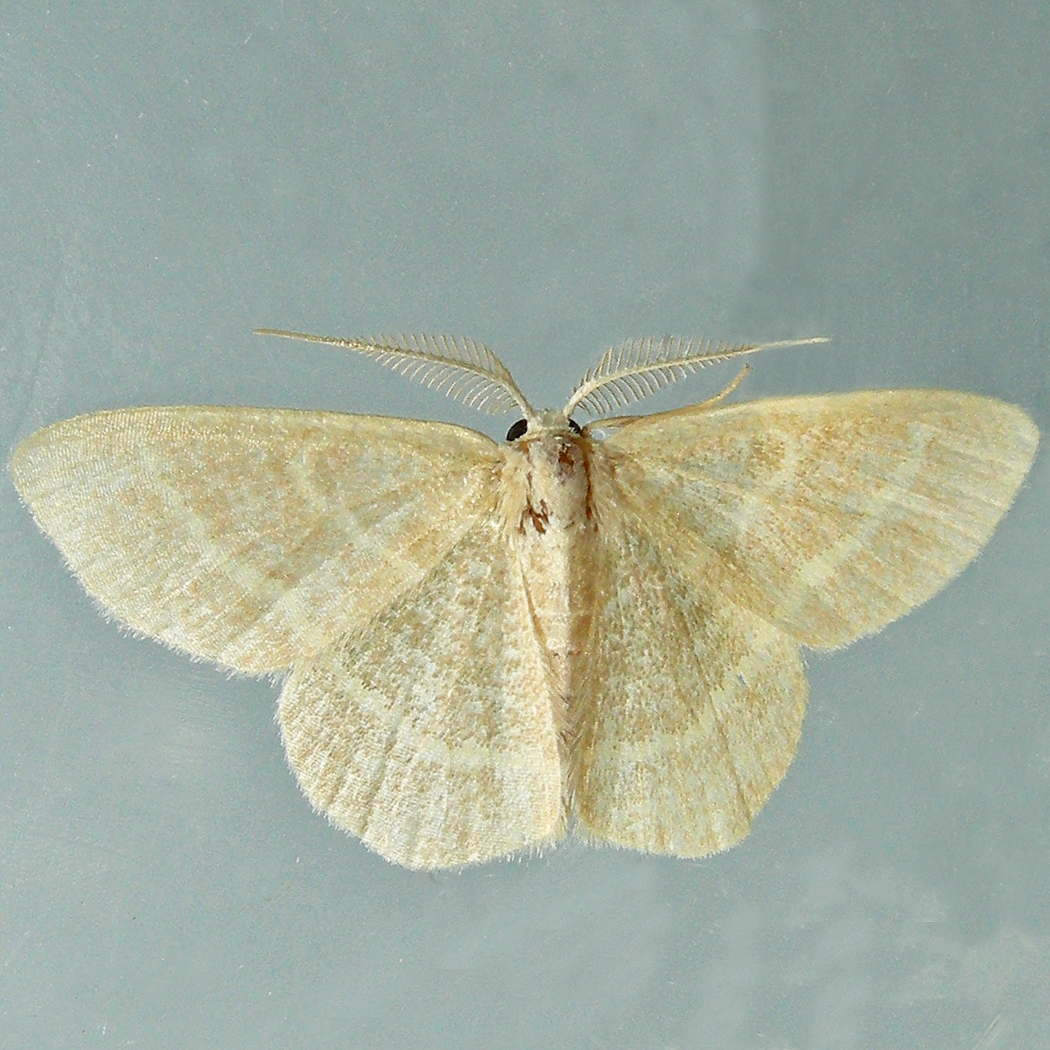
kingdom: Animalia
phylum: Arthropoda
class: Insecta
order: Lepidoptera
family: Geometridae
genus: Chlorochlamys
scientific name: Chlorochlamys chloroleucaria
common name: Blackberry looper
